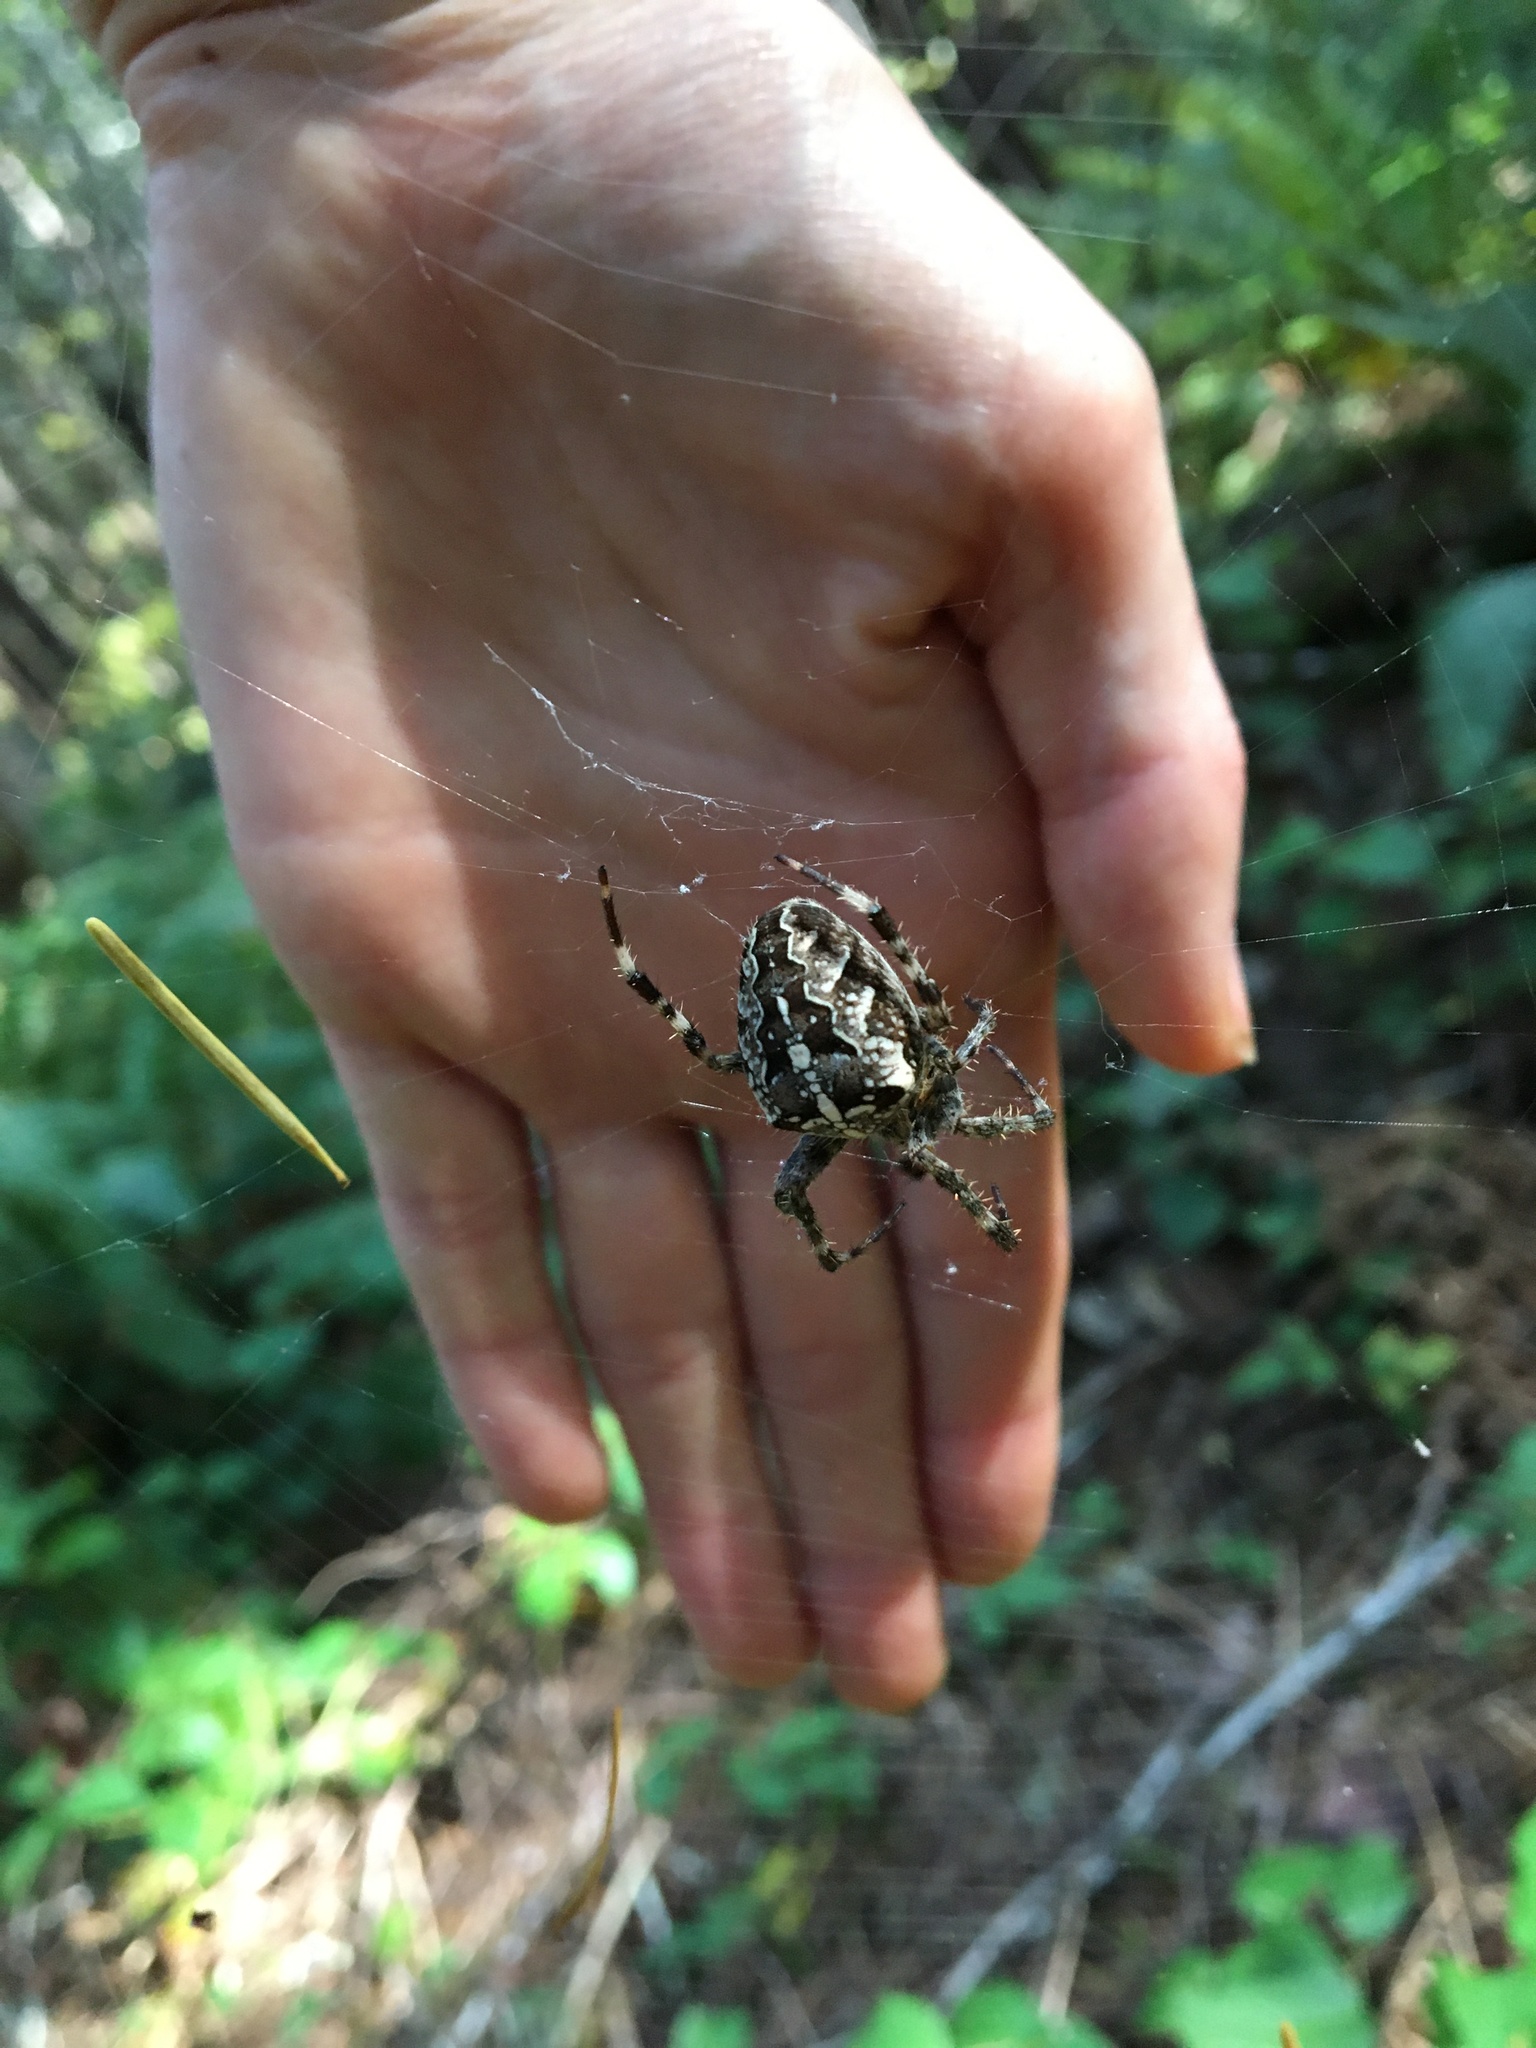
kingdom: Animalia
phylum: Arthropoda
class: Arachnida
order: Araneae
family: Araneidae
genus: Araneus
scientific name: Araneus diadematus
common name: Cross orbweaver
